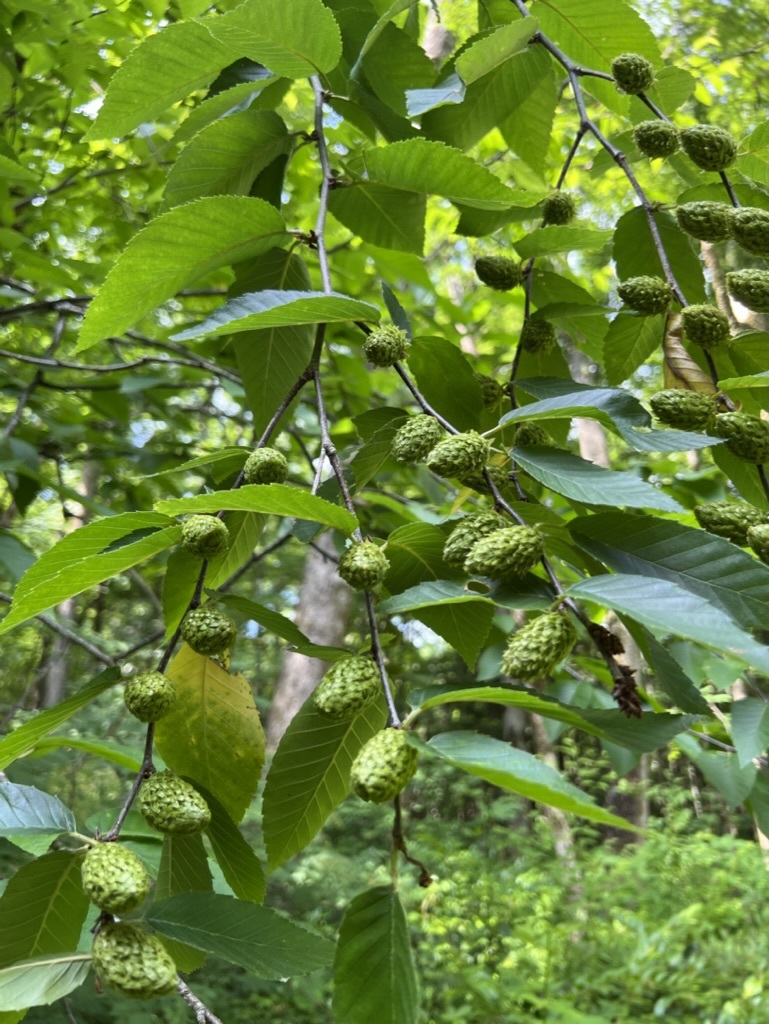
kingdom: Plantae
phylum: Tracheophyta
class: Magnoliopsida
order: Fagales
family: Betulaceae
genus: Betula
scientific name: Betula alleghaniensis
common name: Yellow birch
